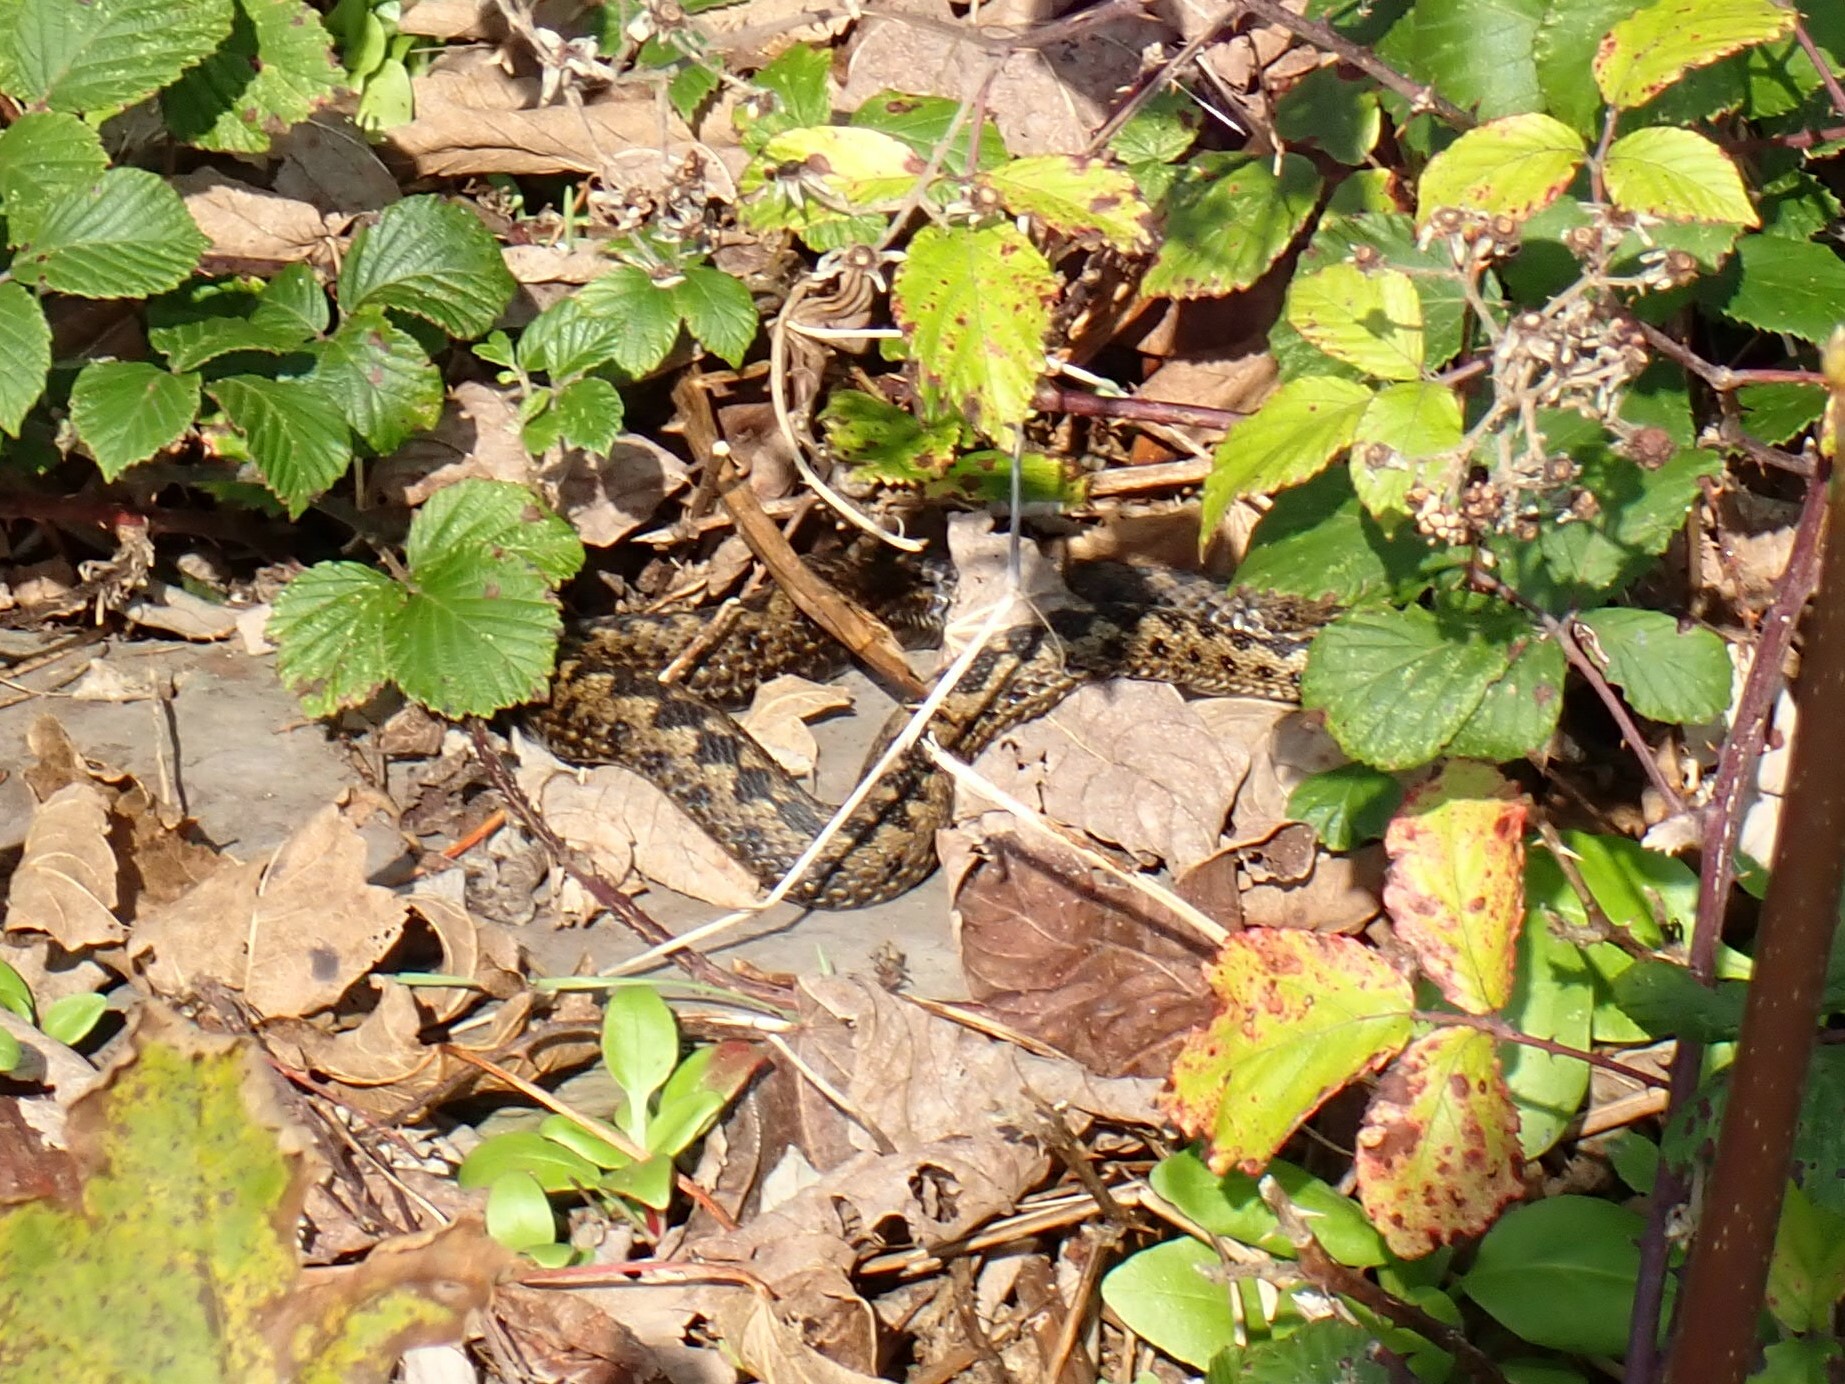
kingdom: Animalia
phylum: Chordata
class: Squamata
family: Viperidae
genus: Vipera
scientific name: Vipera berus
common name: Adder
